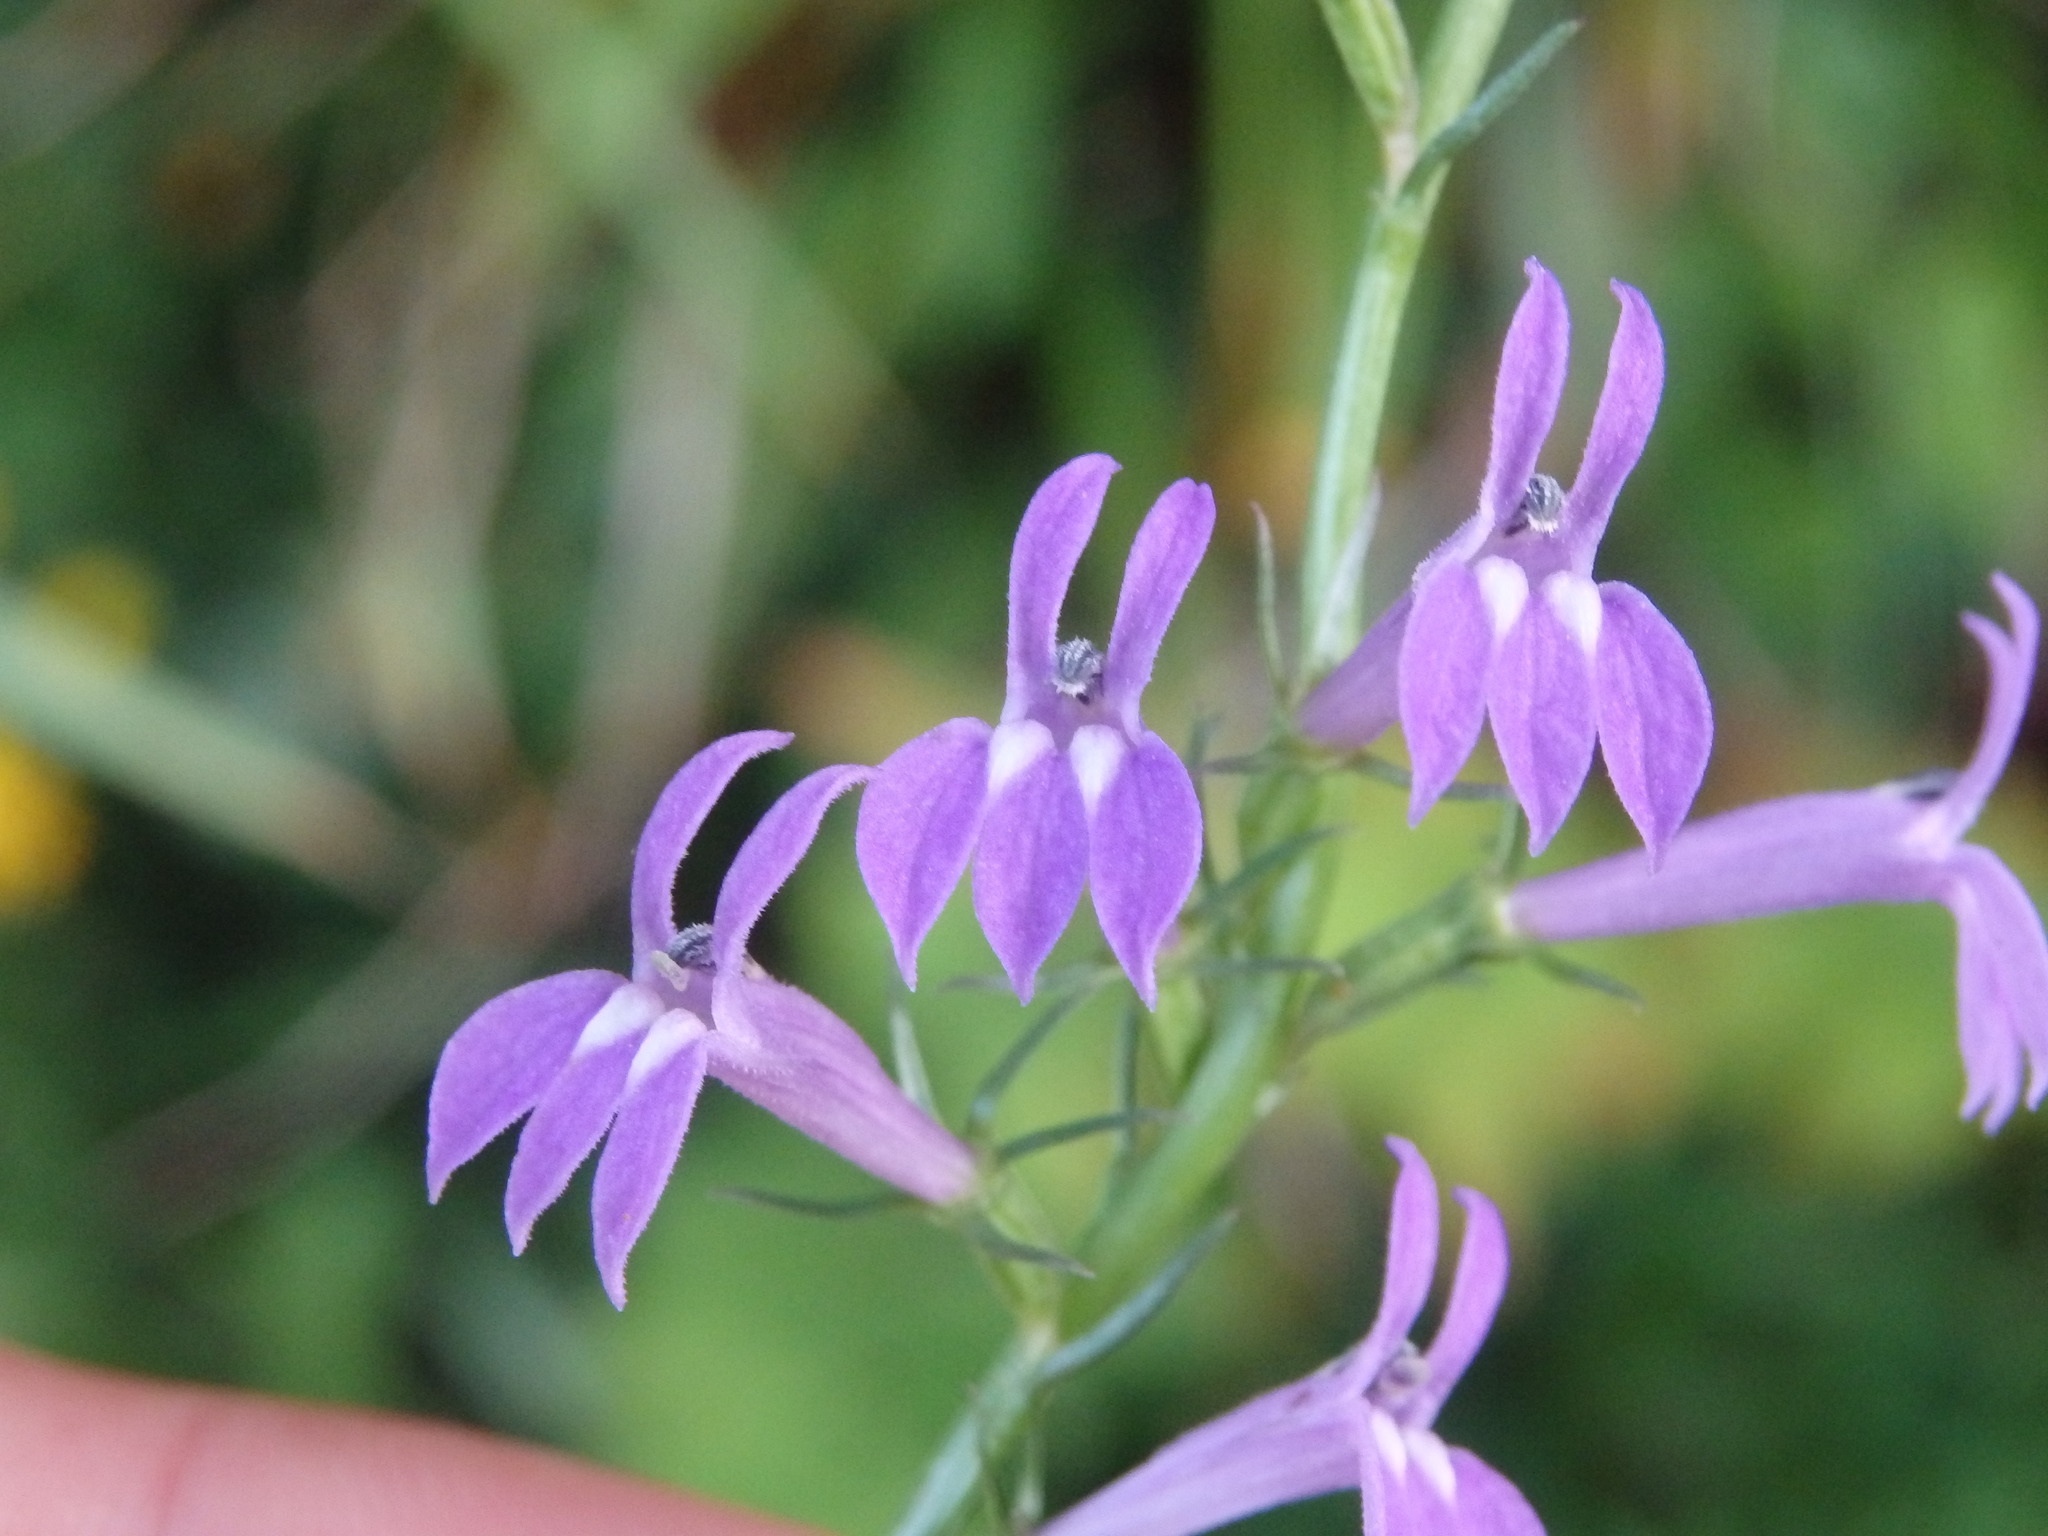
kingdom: Plantae
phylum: Tracheophyta
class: Magnoliopsida
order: Asterales
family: Campanulaceae
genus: Lobelia
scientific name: Lobelia urens
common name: Heath lobelia
